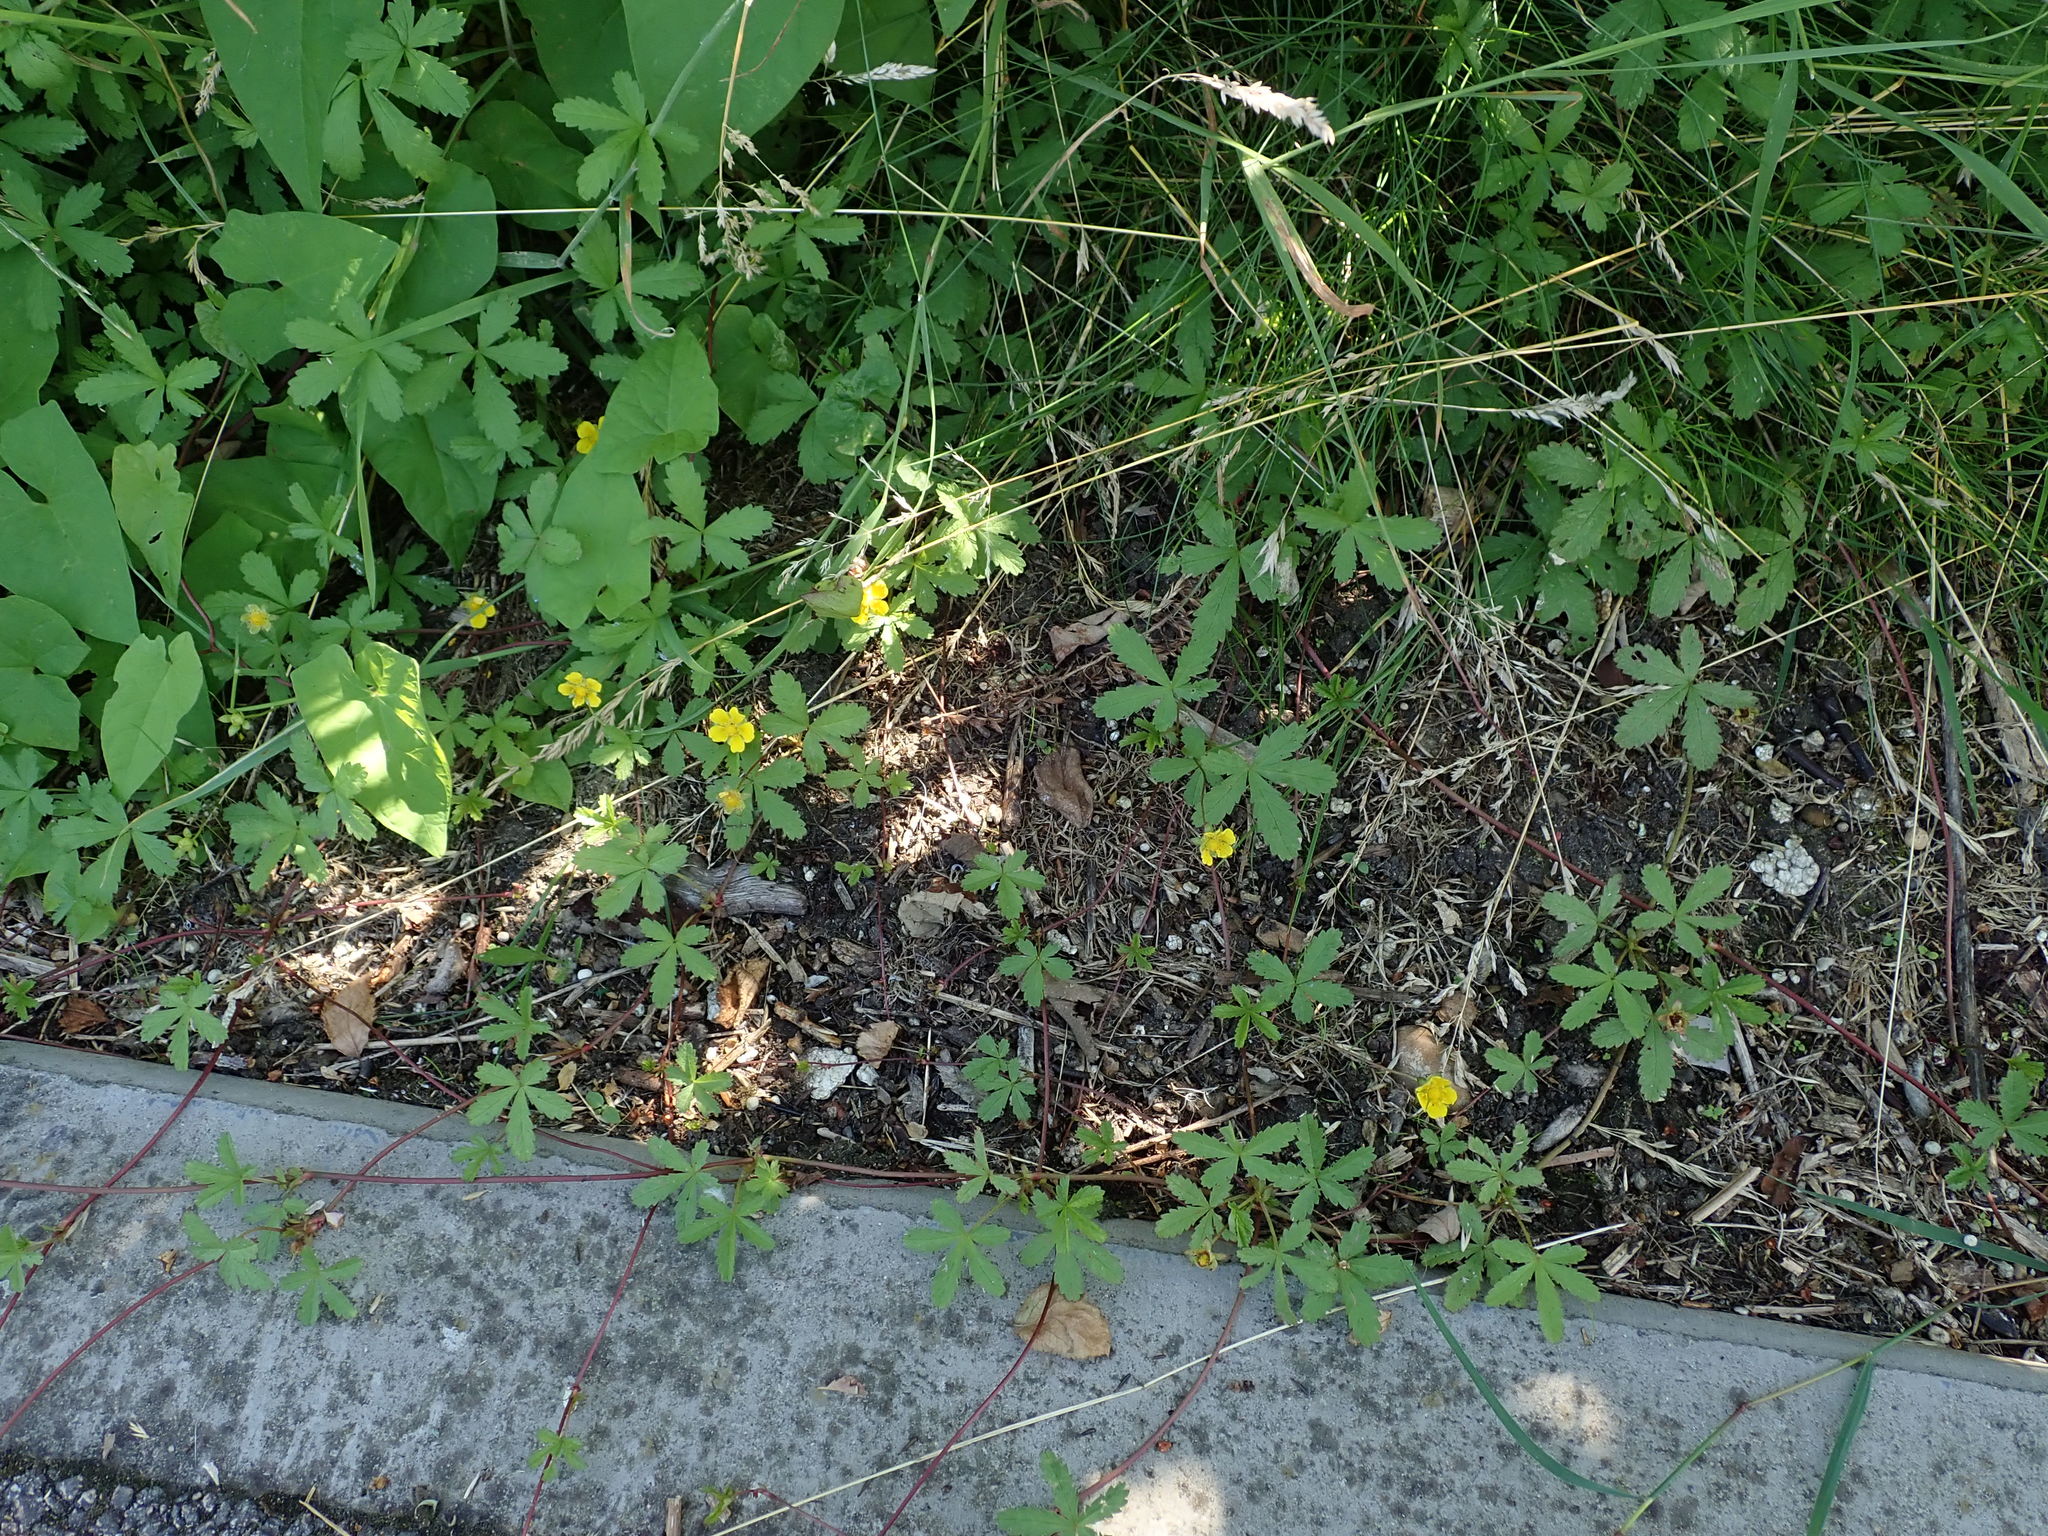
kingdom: Plantae
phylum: Tracheophyta
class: Magnoliopsida
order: Rosales
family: Rosaceae
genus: Potentilla
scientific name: Potentilla reptans
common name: Creeping cinquefoil
